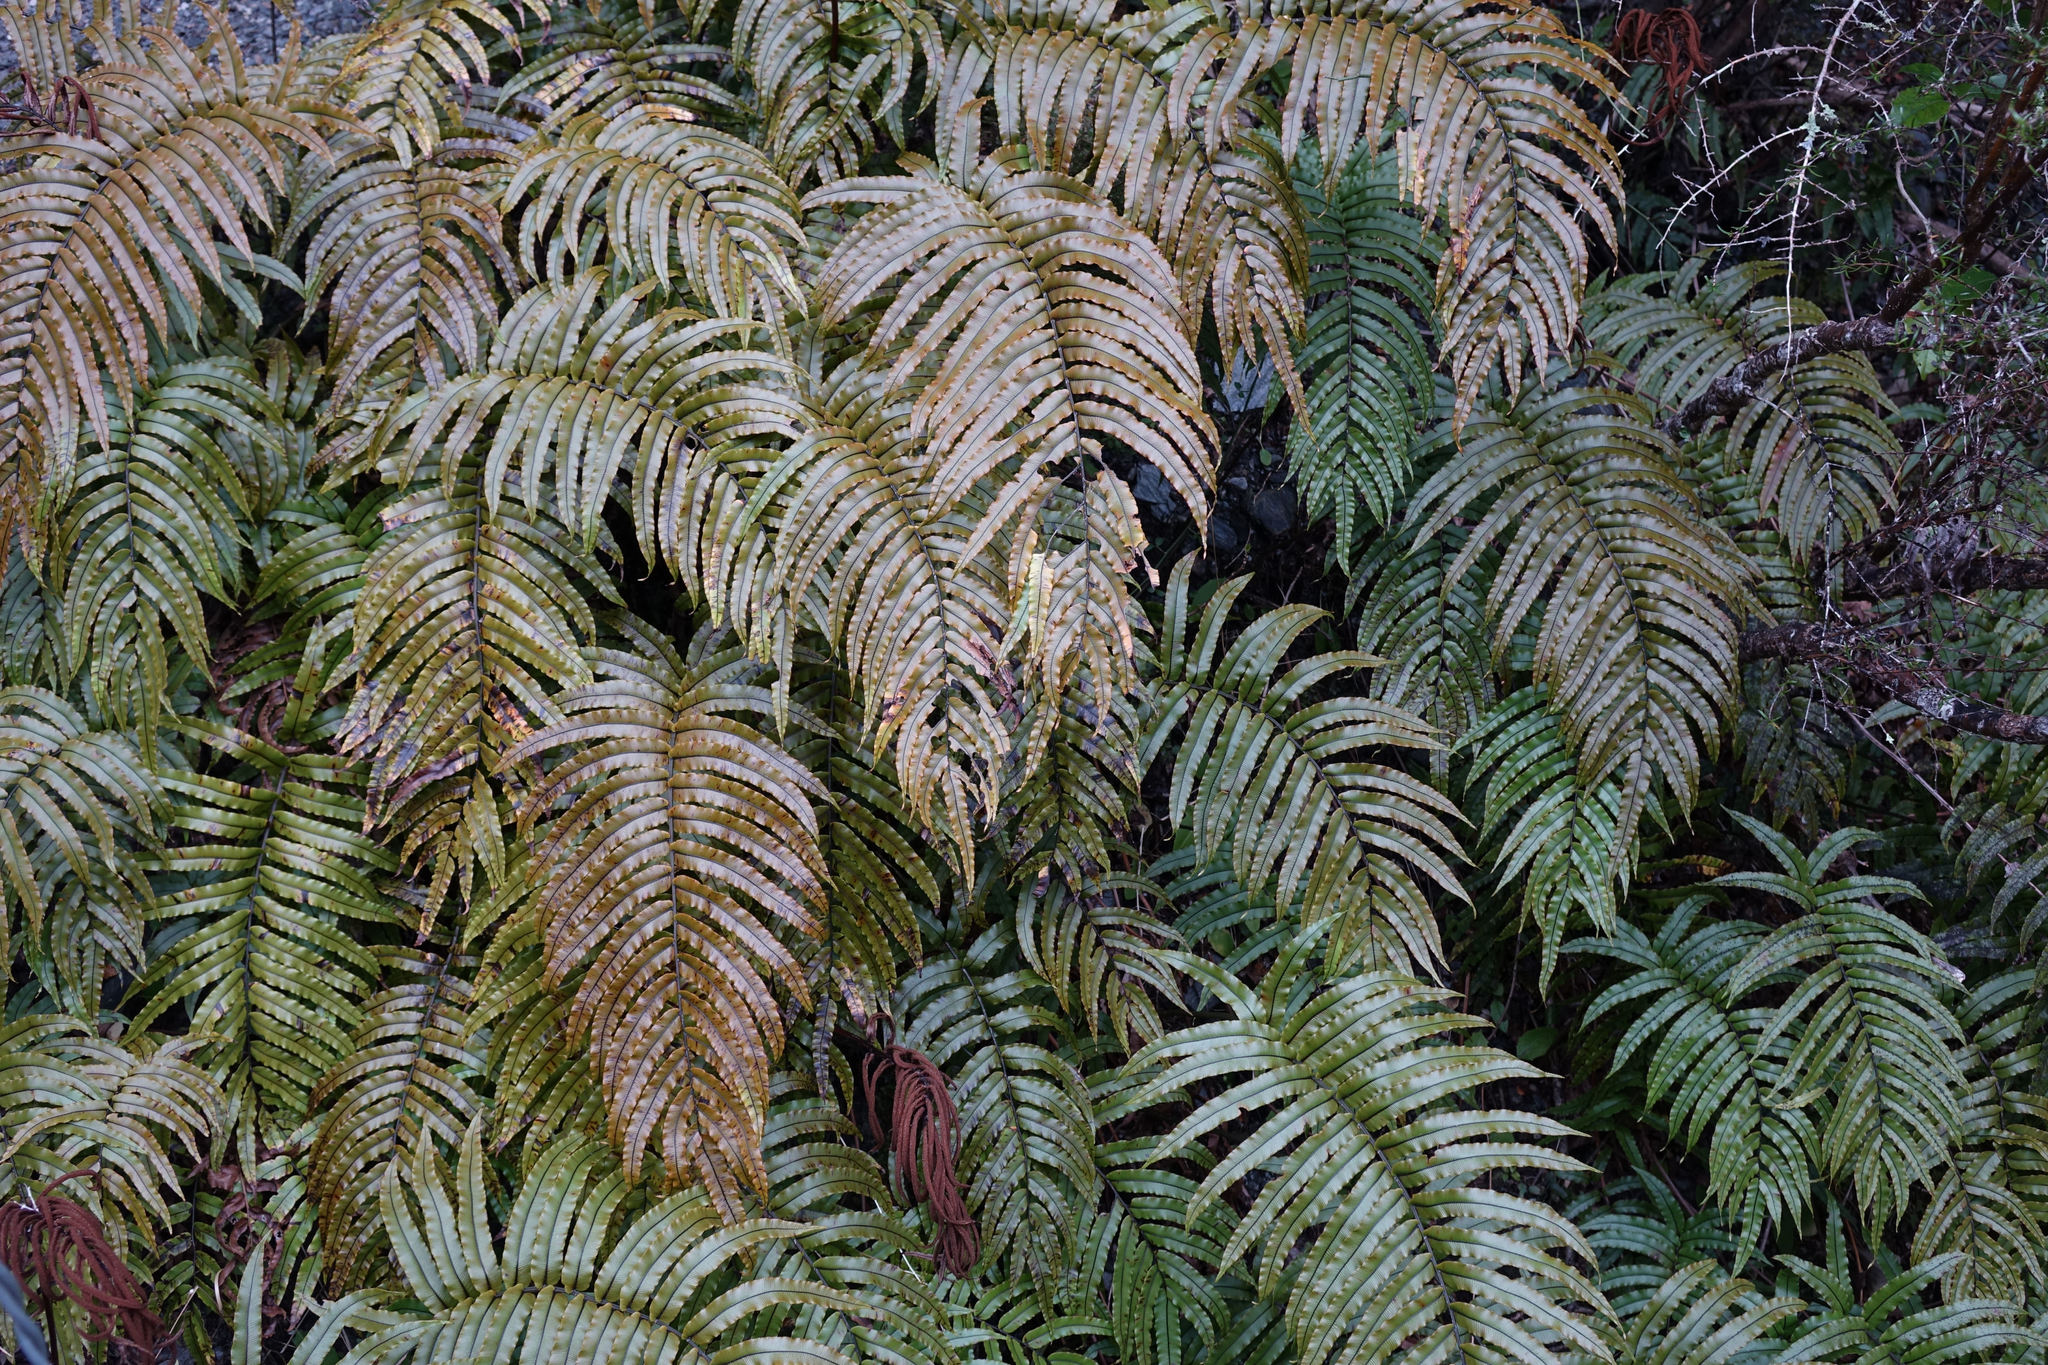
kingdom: Plantae
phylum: Tracheophyta
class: Polypodiopsida
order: Polypodiales
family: Blechnaceae
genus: Parablechnum
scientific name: Parablechnum montanum
